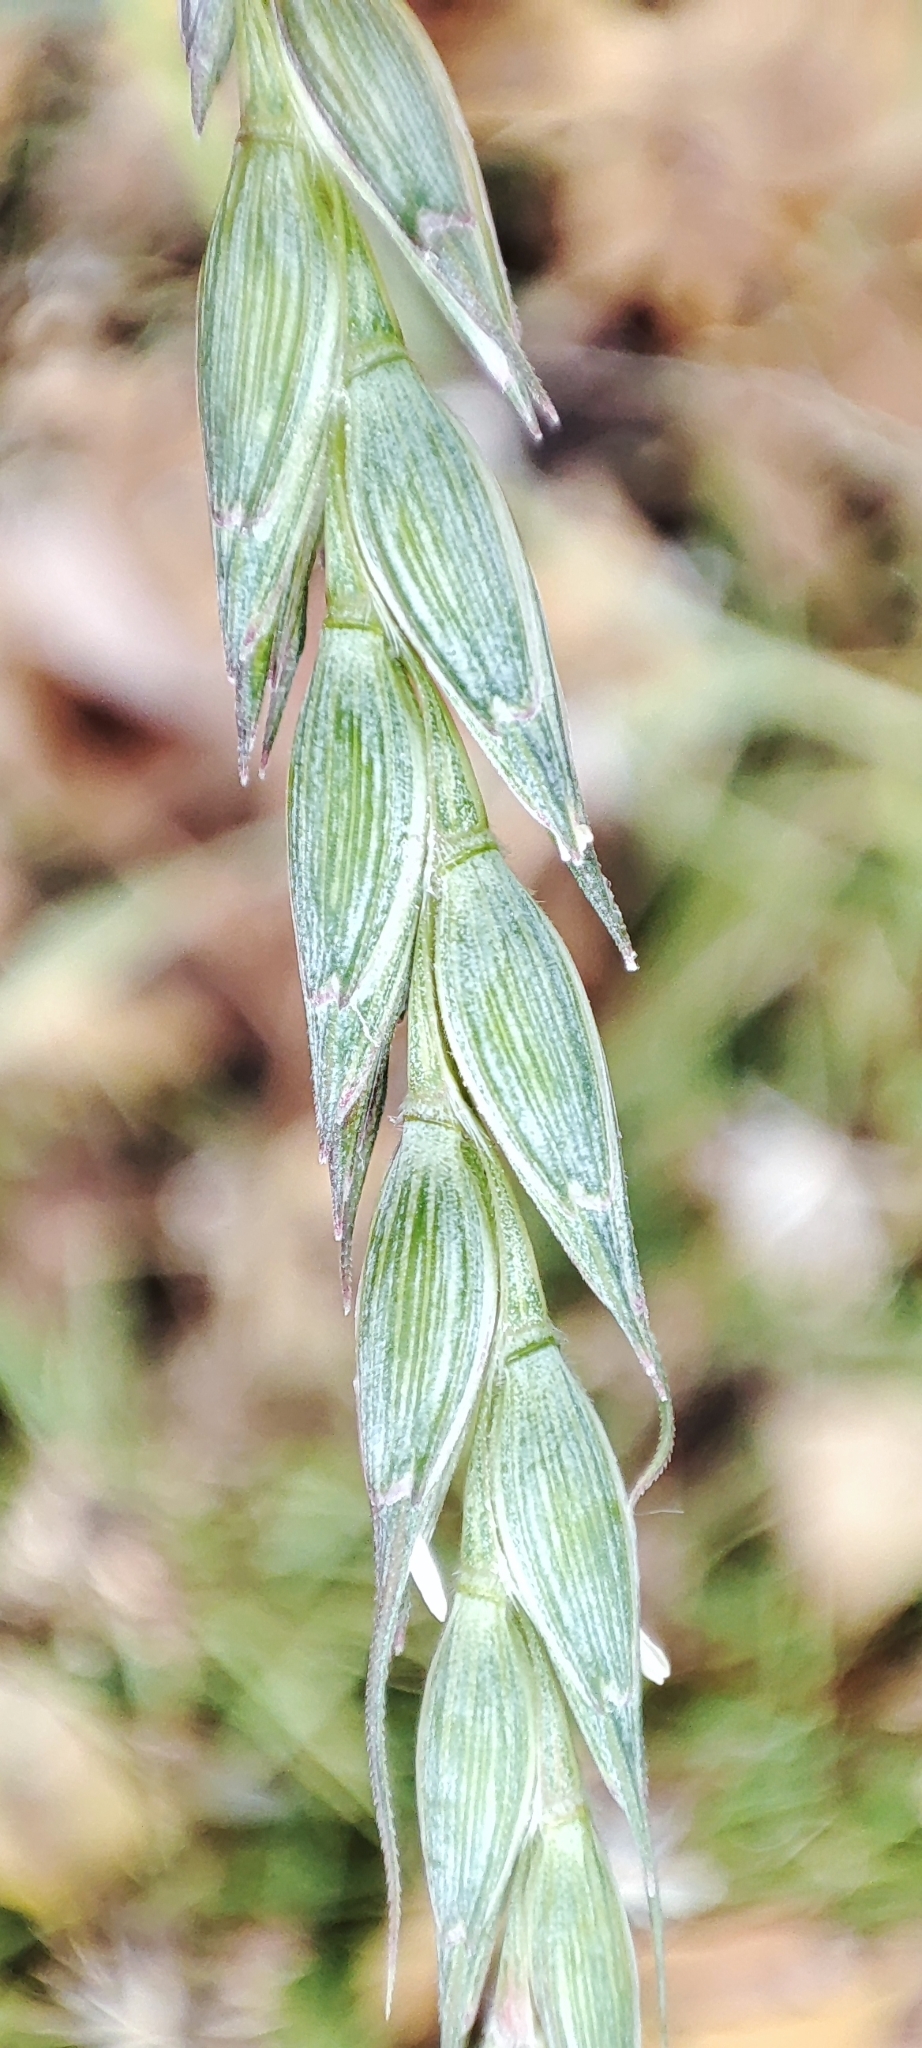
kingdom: Plantae
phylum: Tracheophyta
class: Liliopsida
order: Poales
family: Poaceae
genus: Triticum
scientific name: Triticum aestivum
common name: Common wheat
